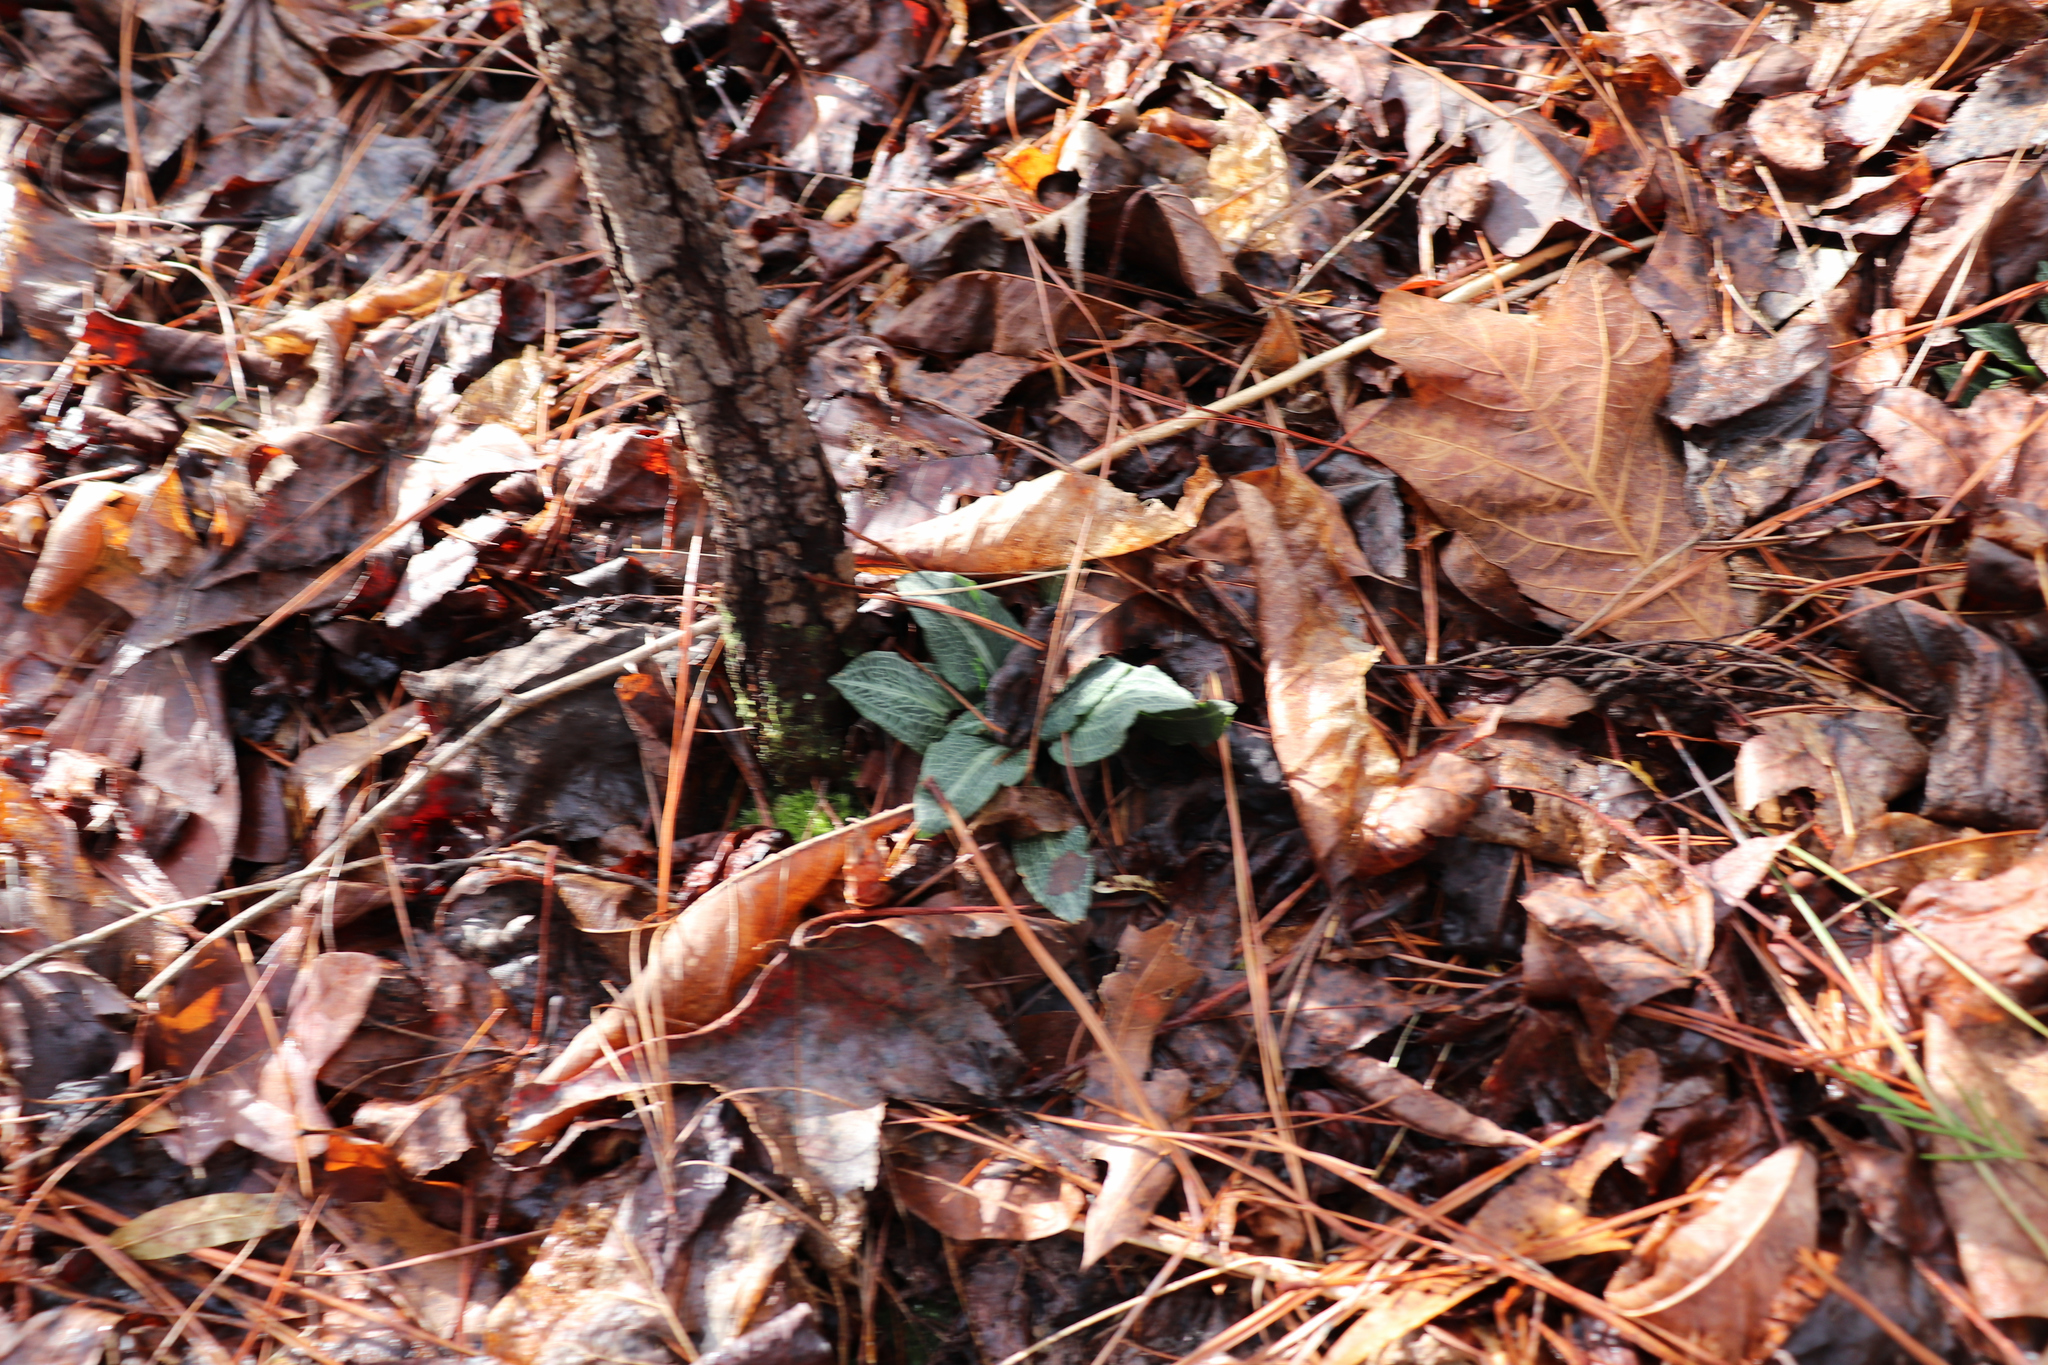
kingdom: Plantae
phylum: Tracheophyta
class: Liliopsida
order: Asparagales
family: Orchidaceae
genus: Goodyera
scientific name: Goodyera pubescens
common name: Downy rattlesnake-plantain
